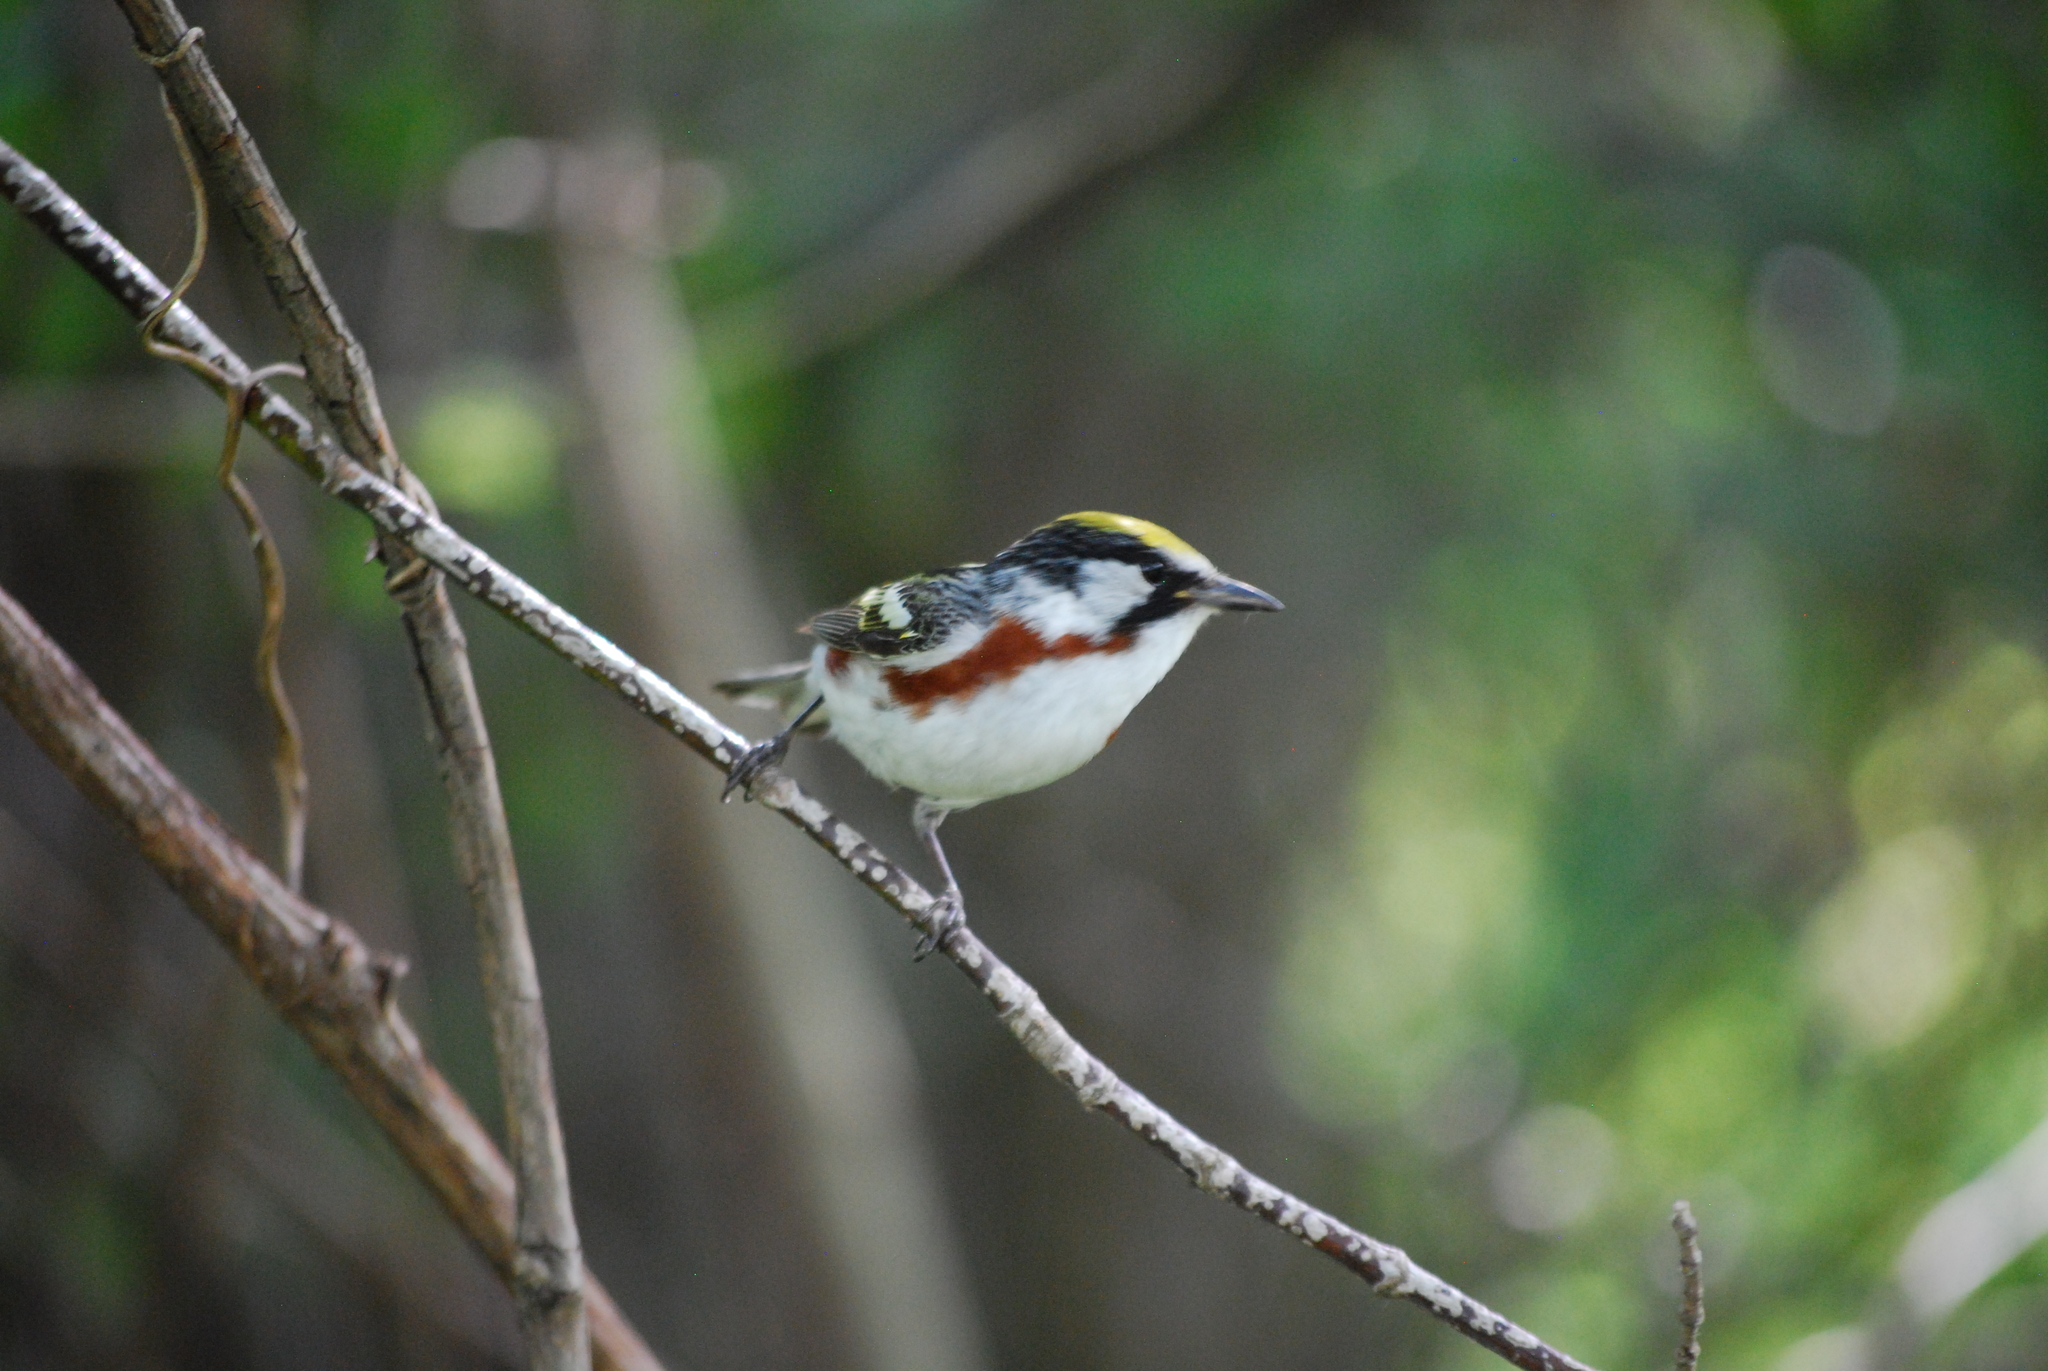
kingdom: Animalia
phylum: Chordata
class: Aves
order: Passeriformes
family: Parulidae
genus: Setophaga
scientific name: Setophaga pensylvanica
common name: Chestnut-sided warbler
